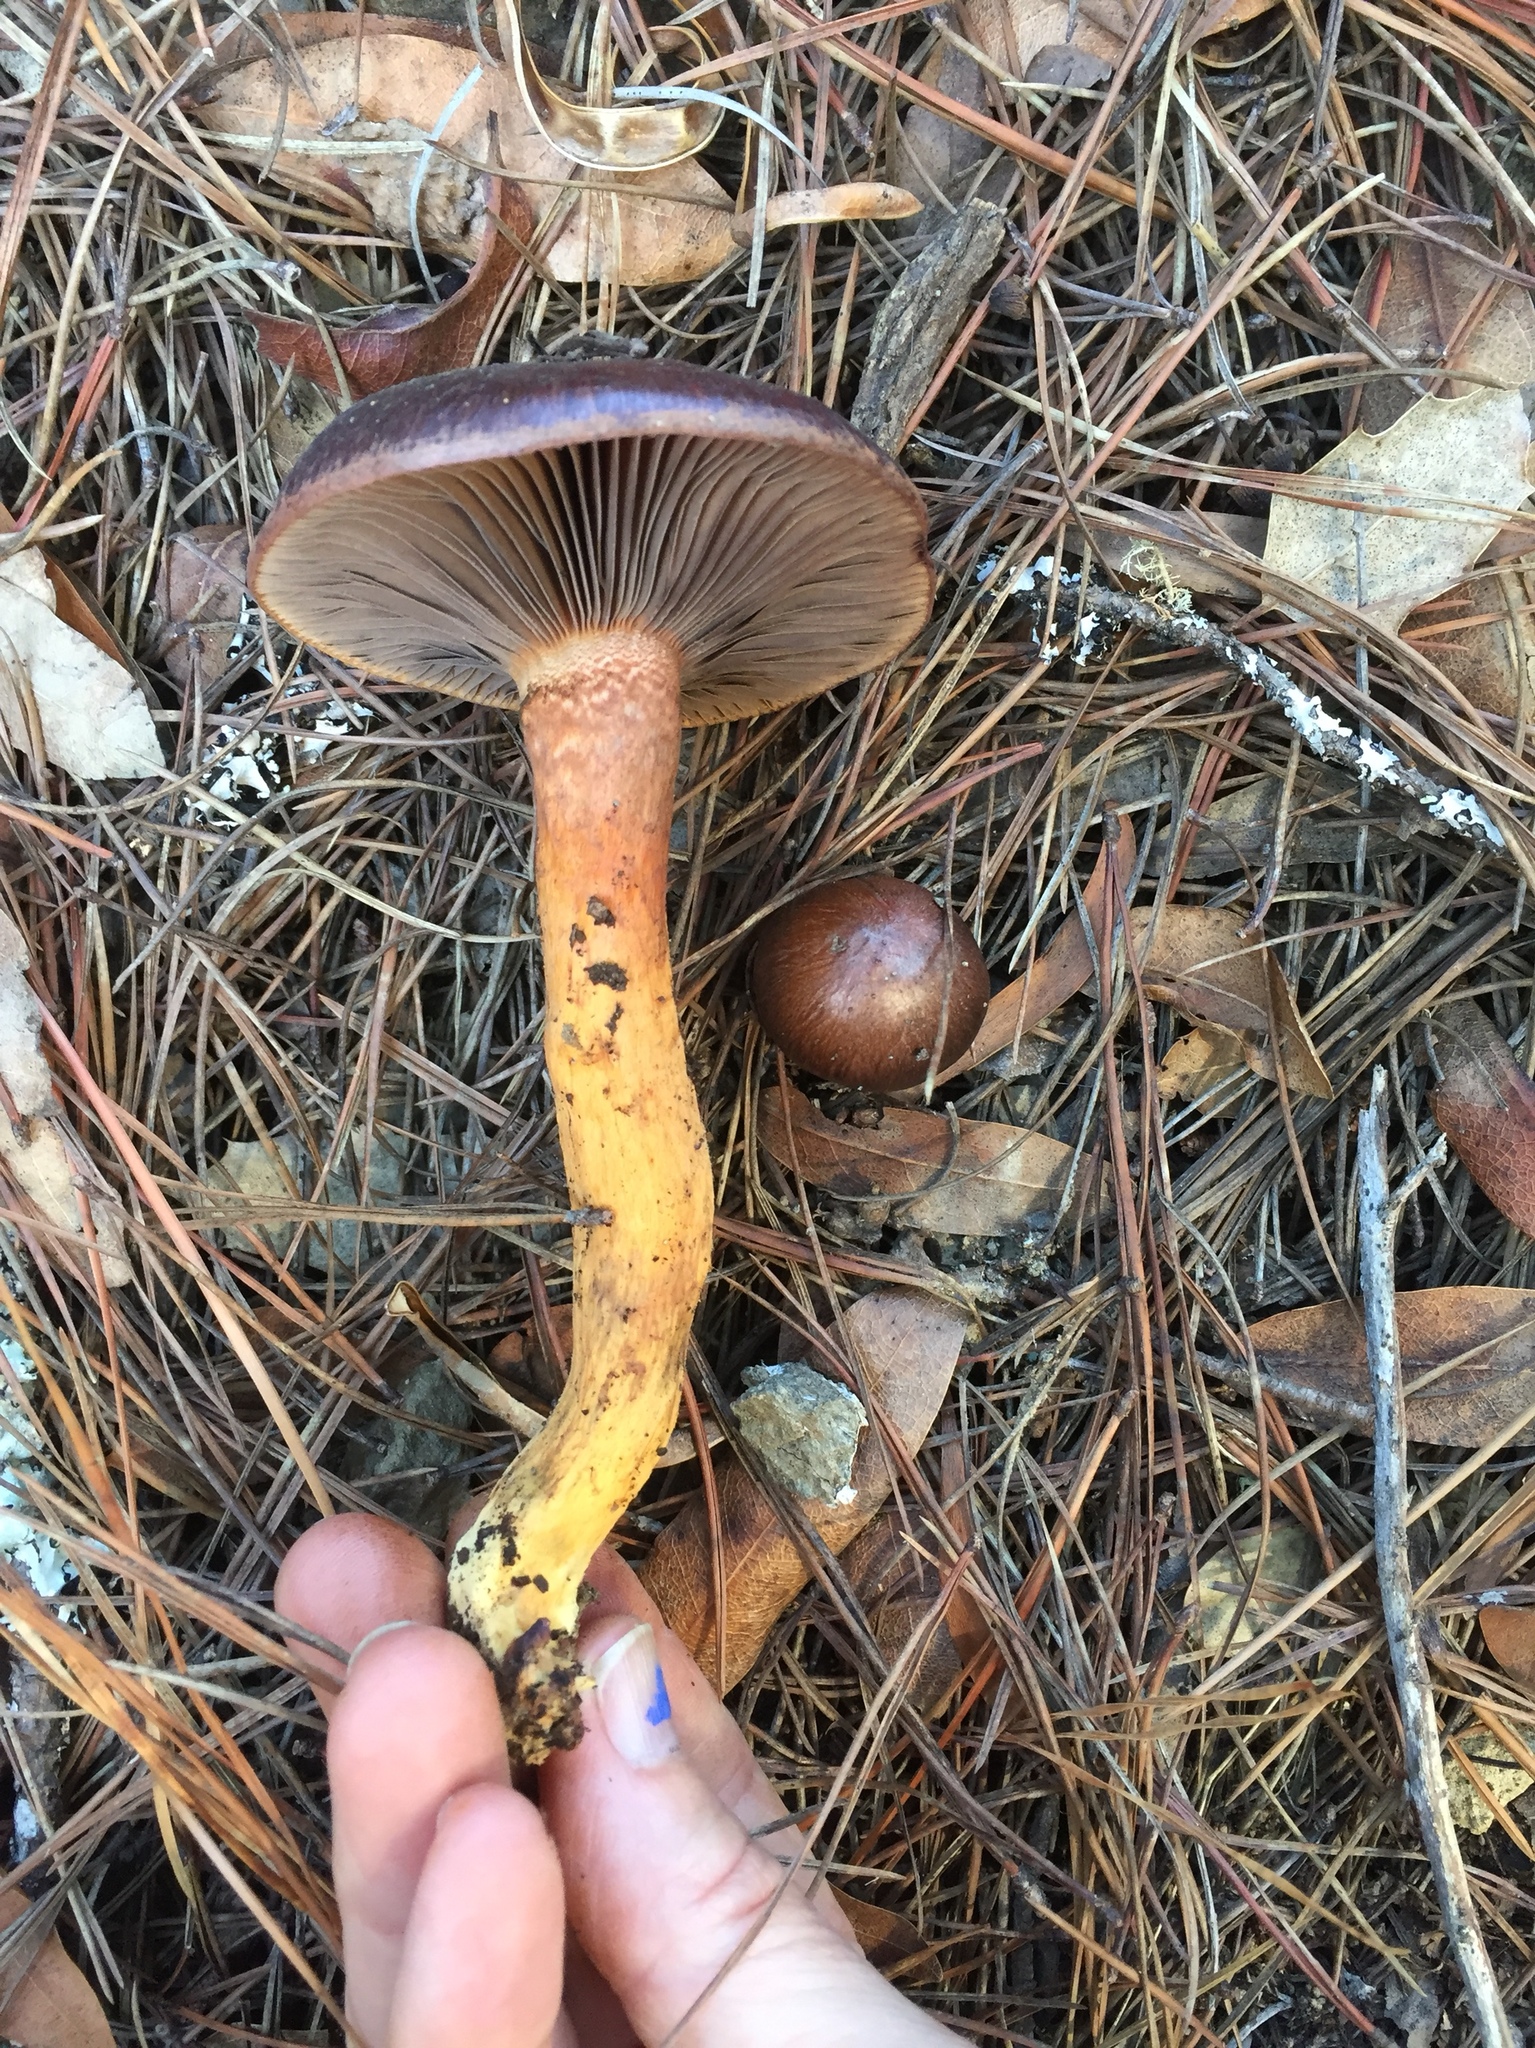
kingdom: Fungi
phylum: Basidiomycota
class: Agaricomycetes
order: Boletales
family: Gomphidiaceae
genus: Chroogomphus
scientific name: Chroogomphus vinicolor
